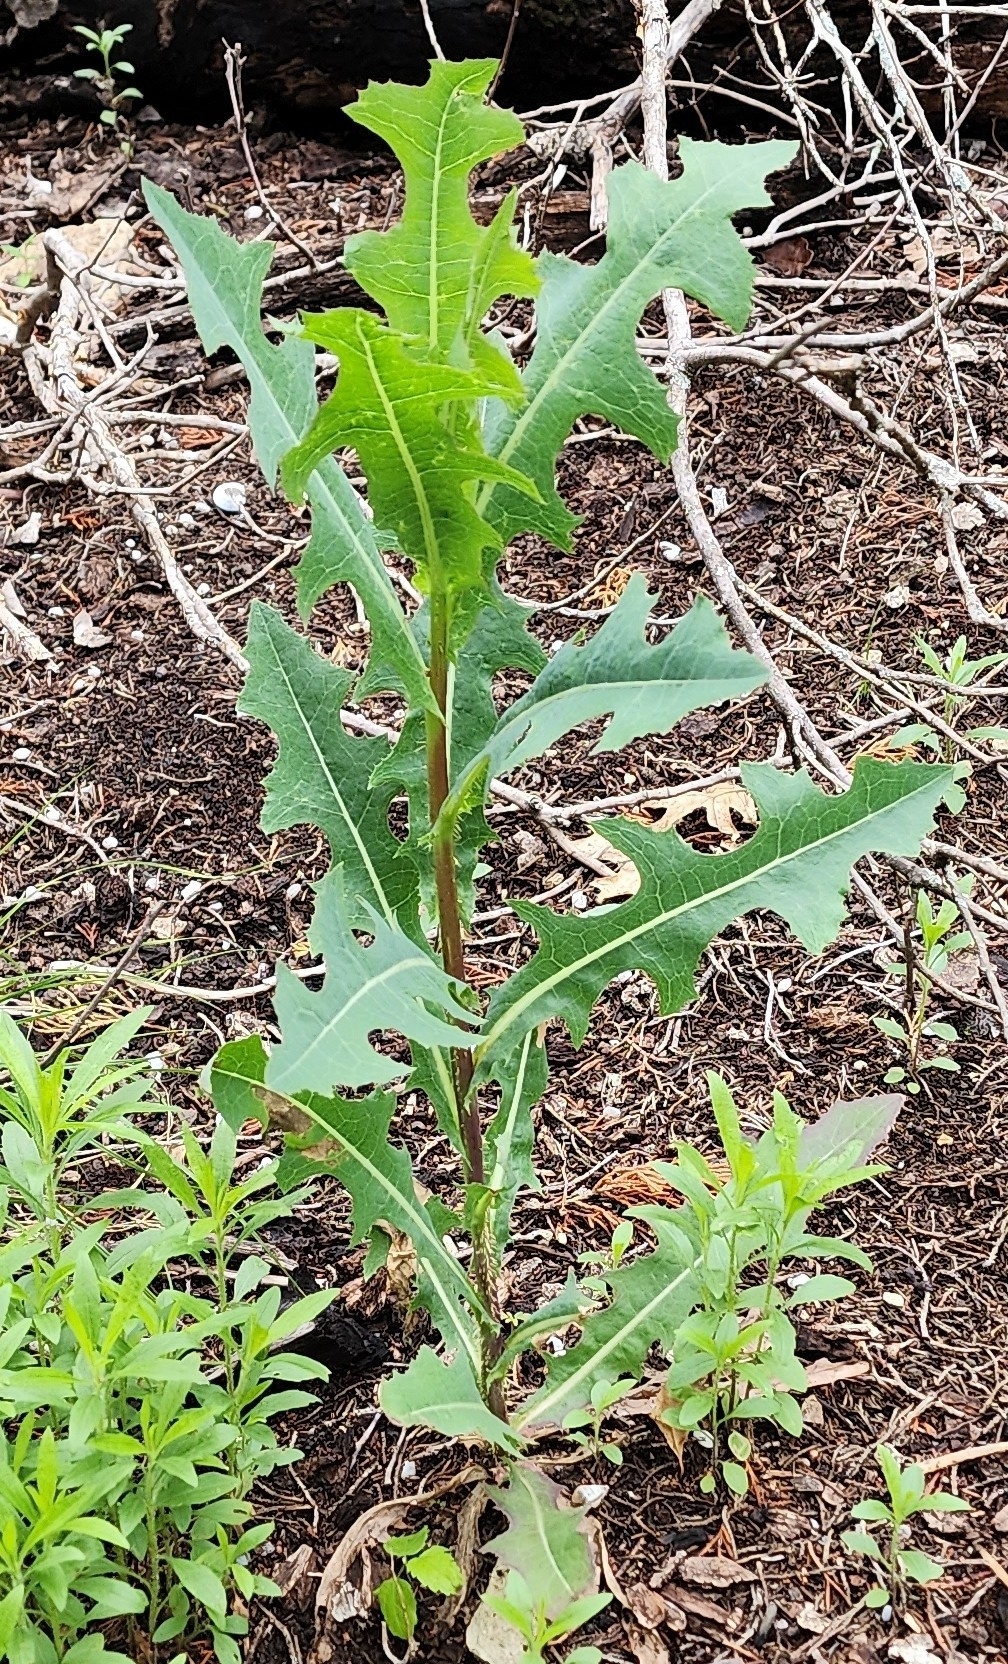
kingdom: Plantae
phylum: Tracheophyta
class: Magnoliopsida
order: Asterales
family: Asteraceae
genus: Lactuca
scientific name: Lactuca serriola
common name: Prickly lettuce
